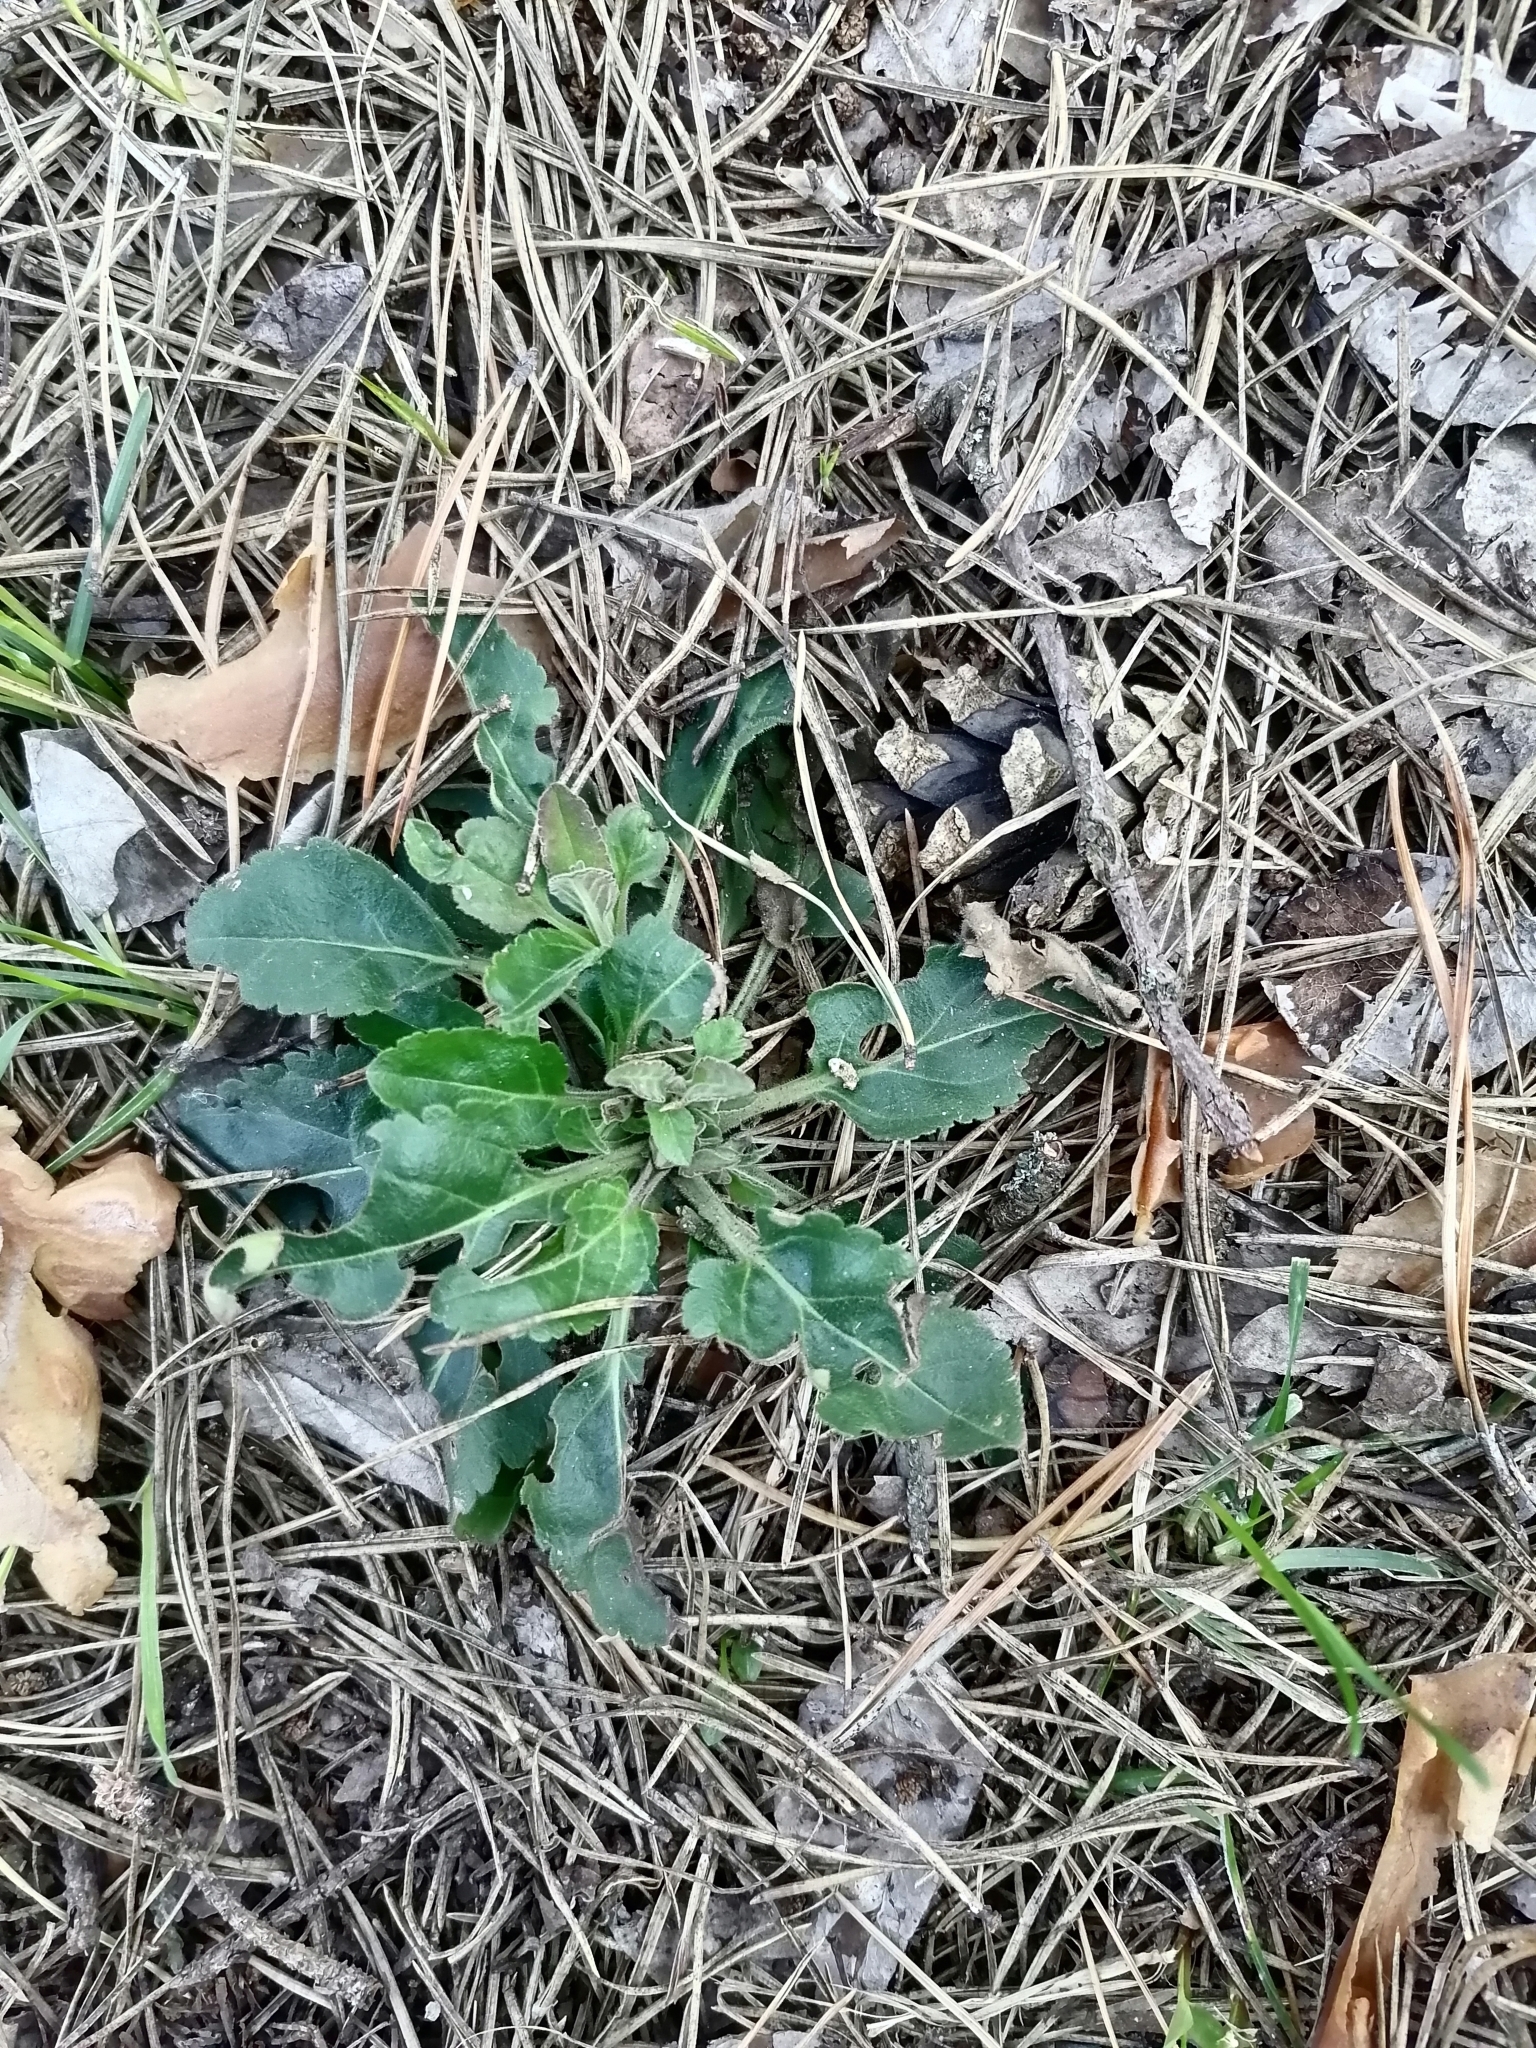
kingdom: Plantae
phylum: Tracheophyta
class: Magnoliopsida
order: Asterales
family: Asteraceae
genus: Erigeron
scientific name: Erigeron annuus
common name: Tall fleabane
